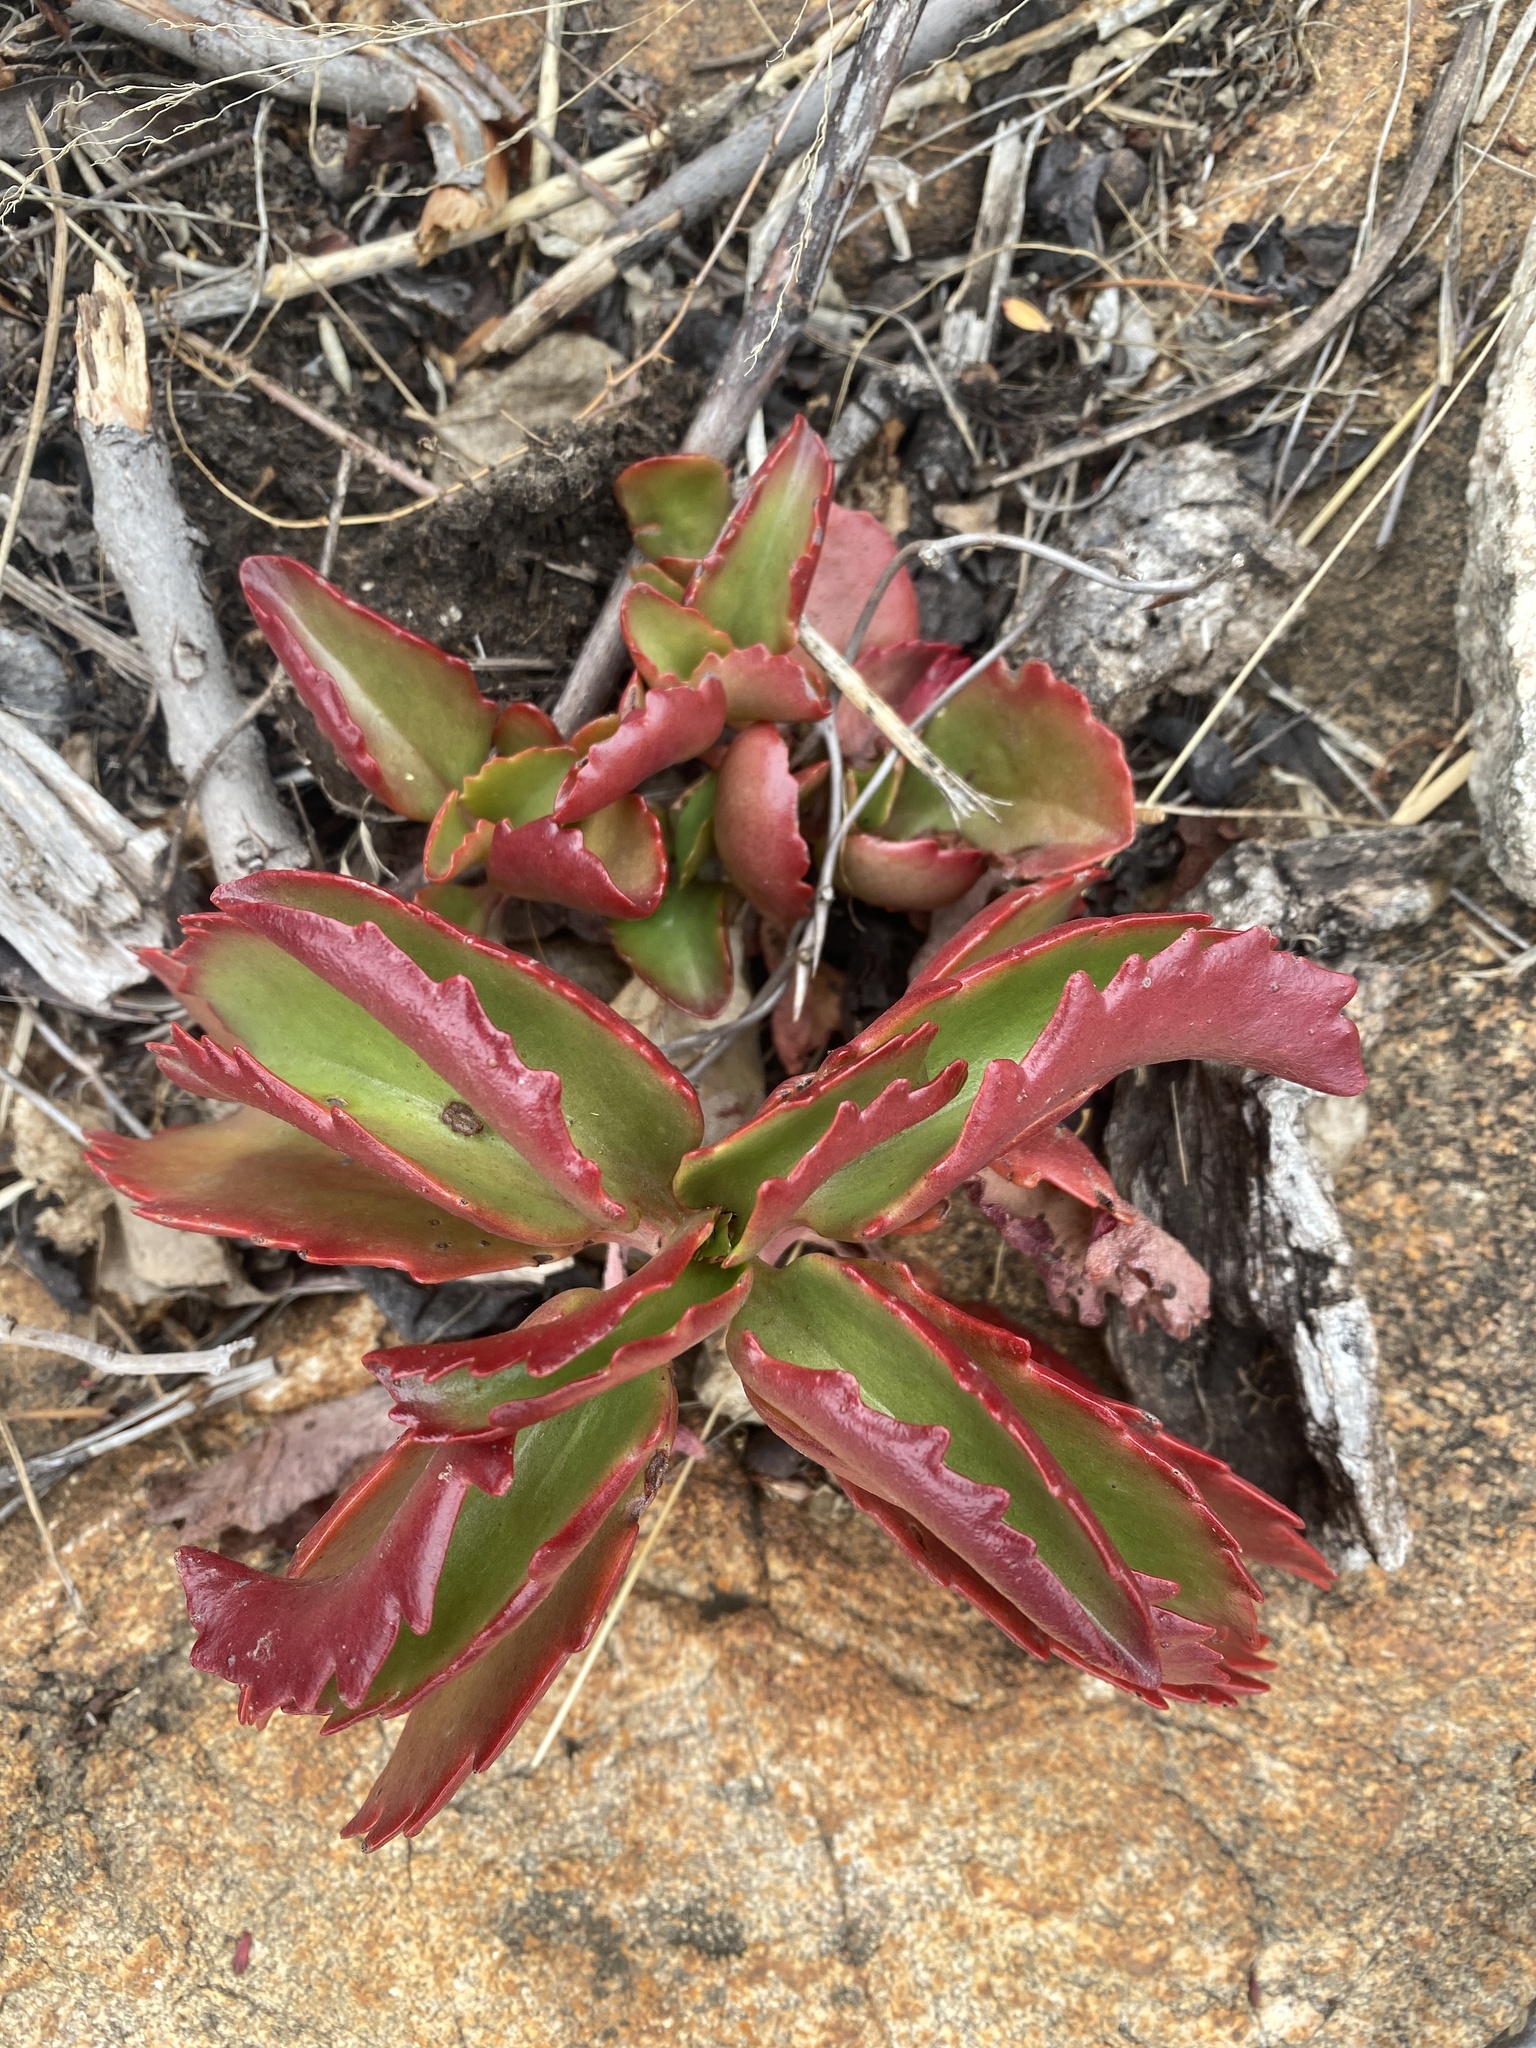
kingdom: Plantae
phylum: Tracheophyta
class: Magnoliopsida
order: Saxifragales
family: Crassulaceae
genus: Kalanchoe
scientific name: Kalanchoe sexangularis
